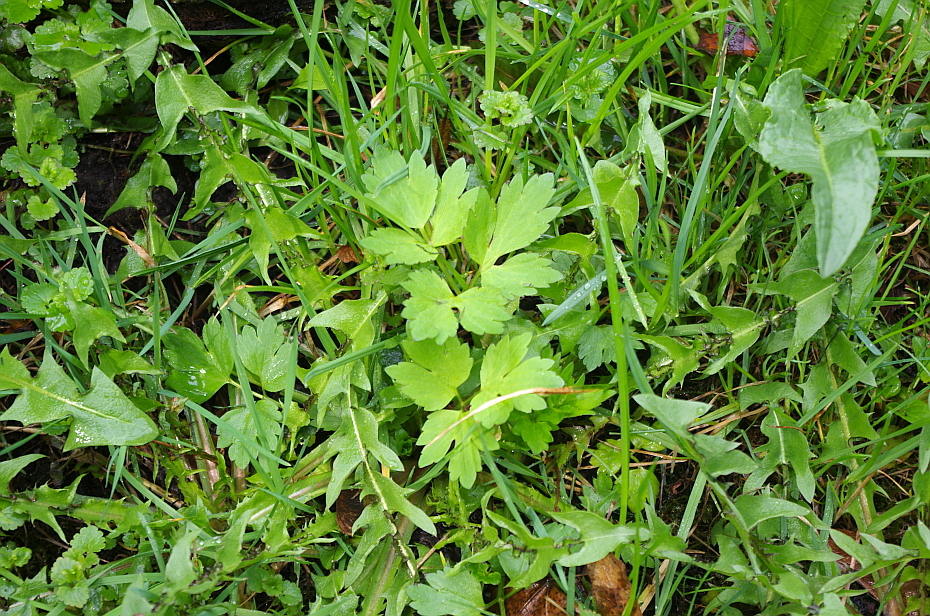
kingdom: Plantae
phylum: Tracheophyta
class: Magnoliopsida
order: Ranunculales
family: Ranunculaceae
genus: Ranunculus
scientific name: Ranunculus repens
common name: Creeping buttercup
